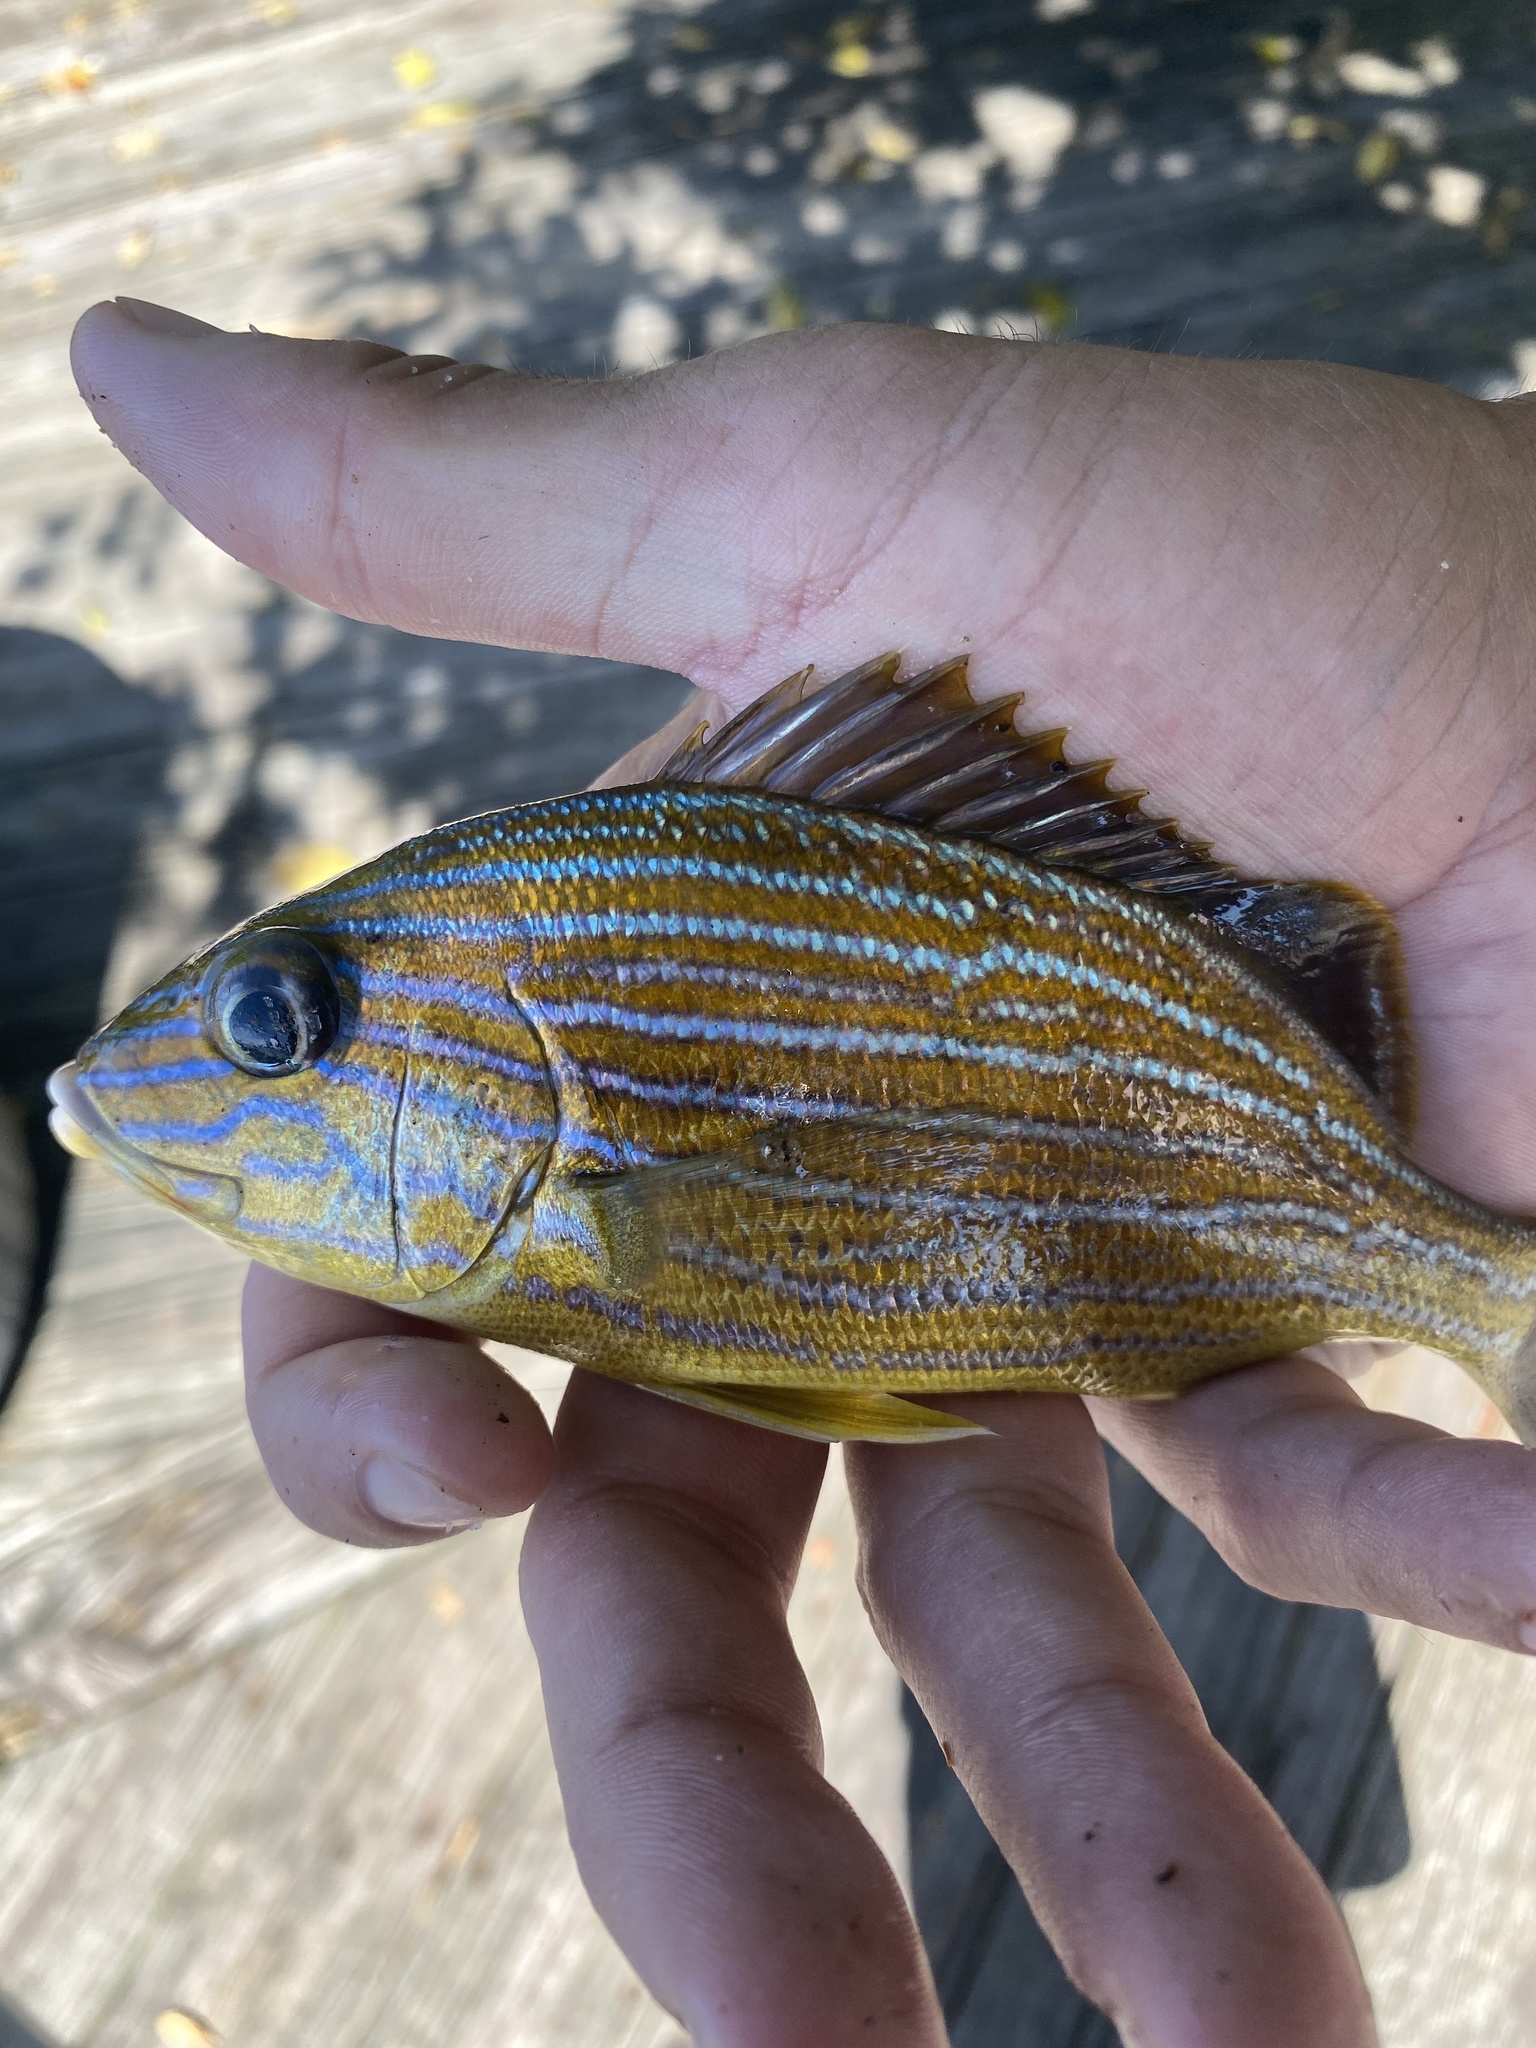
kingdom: Animalia
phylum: Chordata
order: Perciformes
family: Haemulidae
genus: Haemulon
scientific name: Haemulon sciurus
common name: Bluestriped grunt
